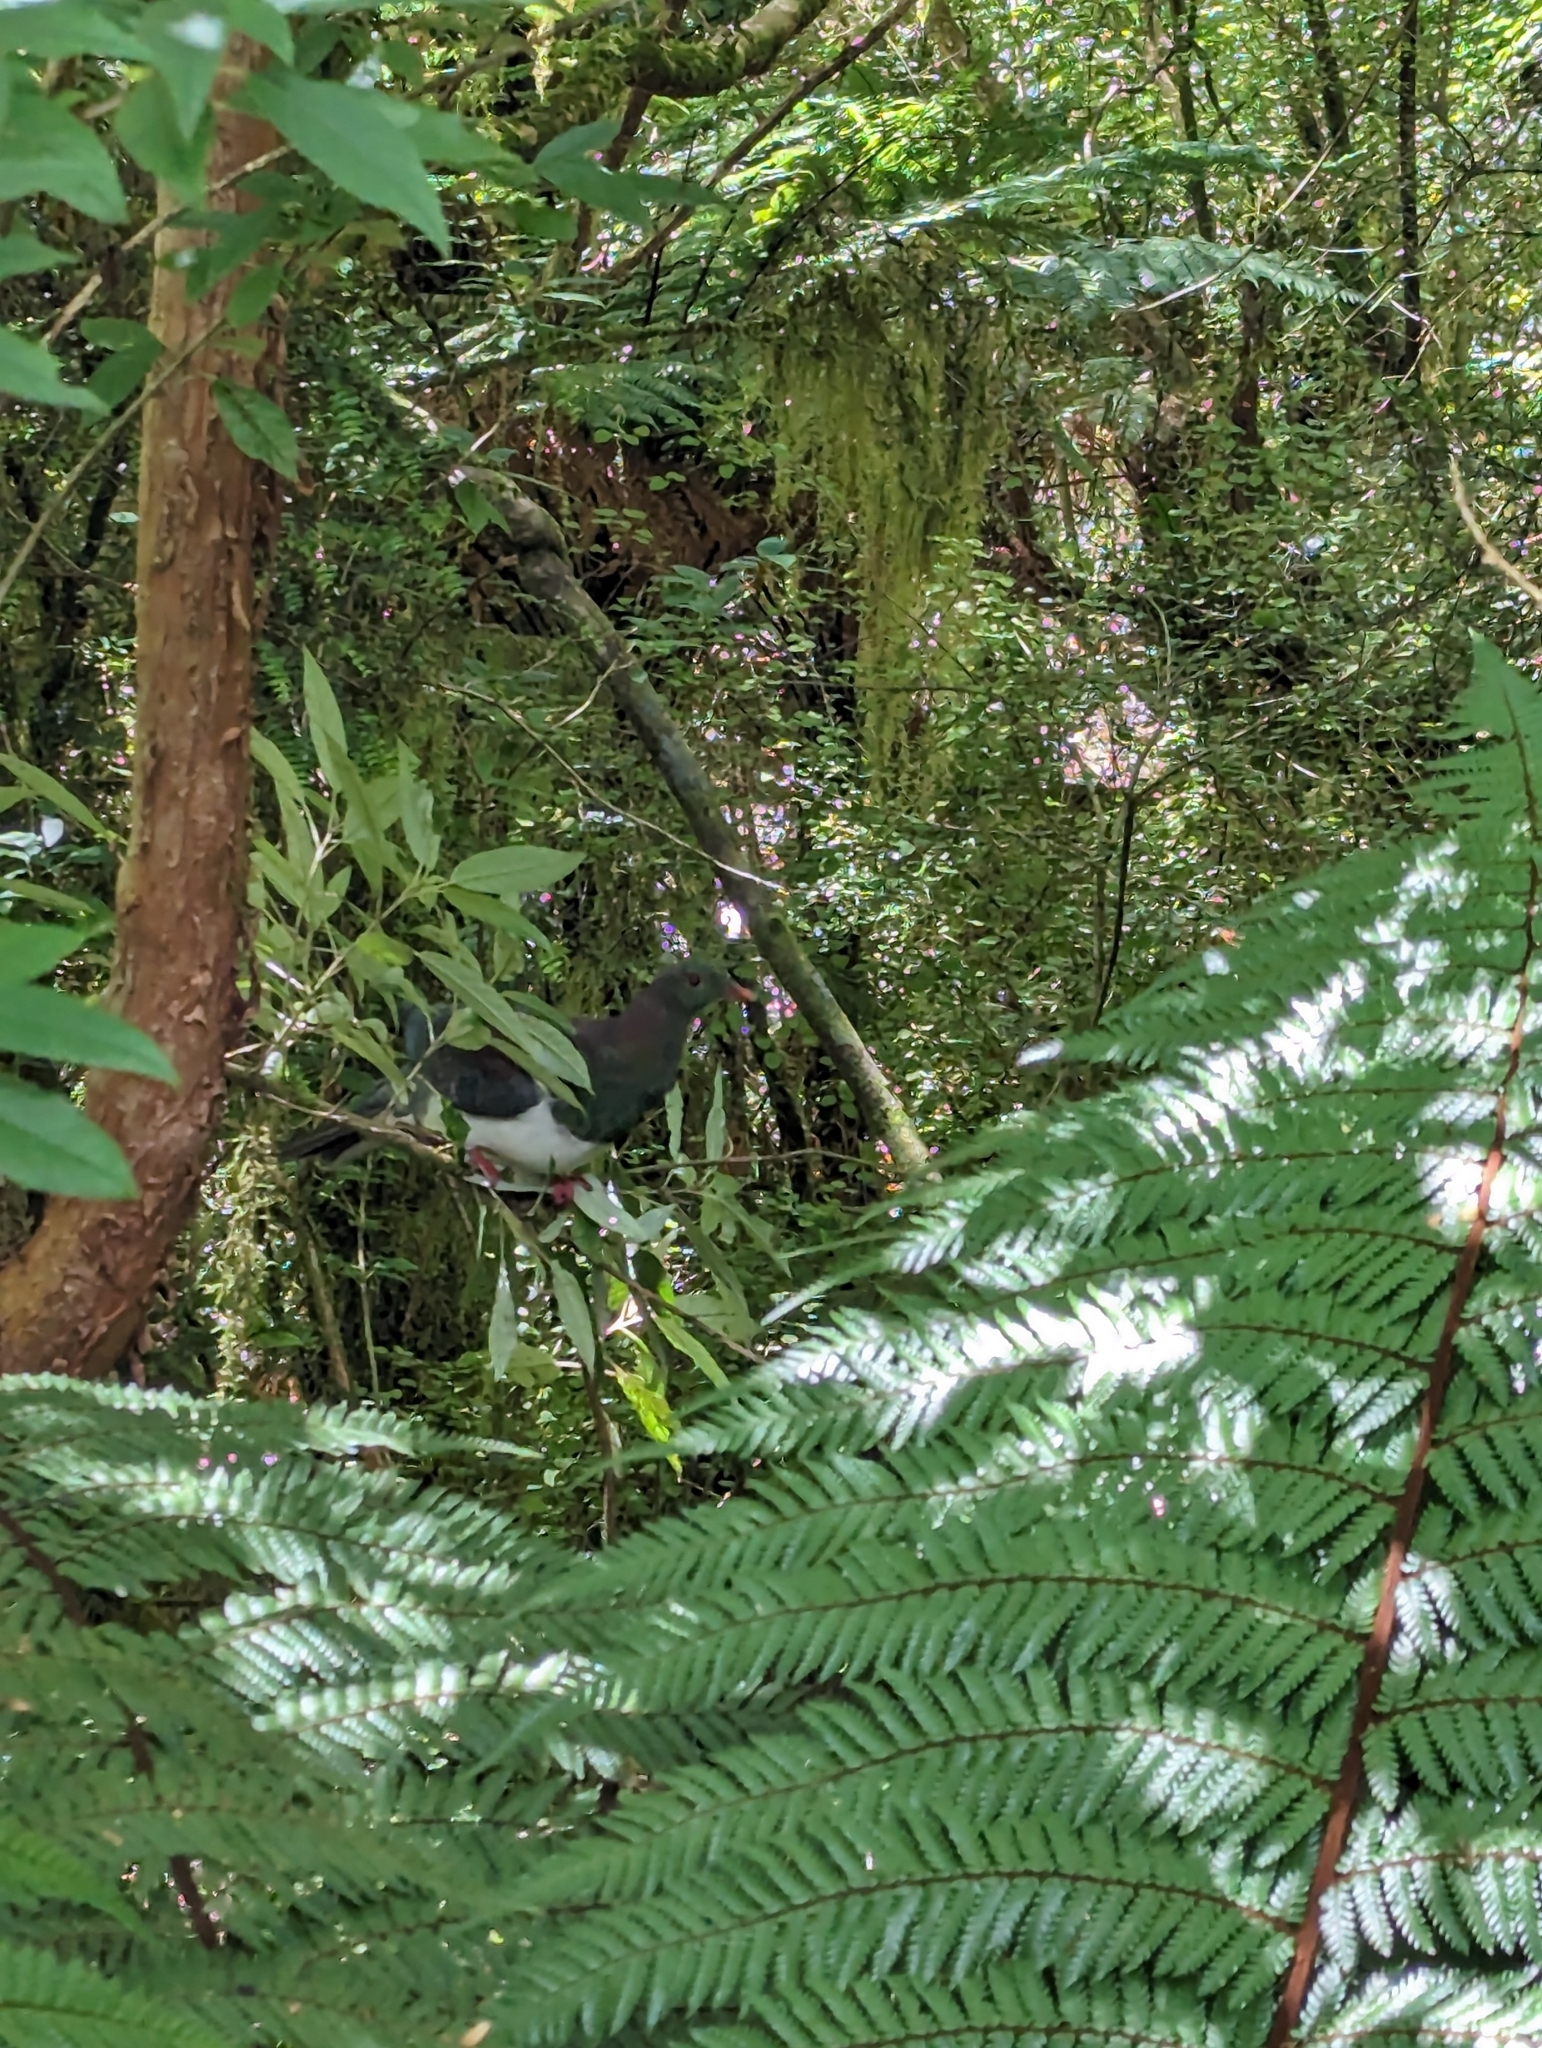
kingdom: Animalia
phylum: Chordata
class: Aves
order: Columbiformes
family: Columbidae
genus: Hemiphaga
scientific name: Hemiphaga novaeseelandiae
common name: New zealand pigeon
